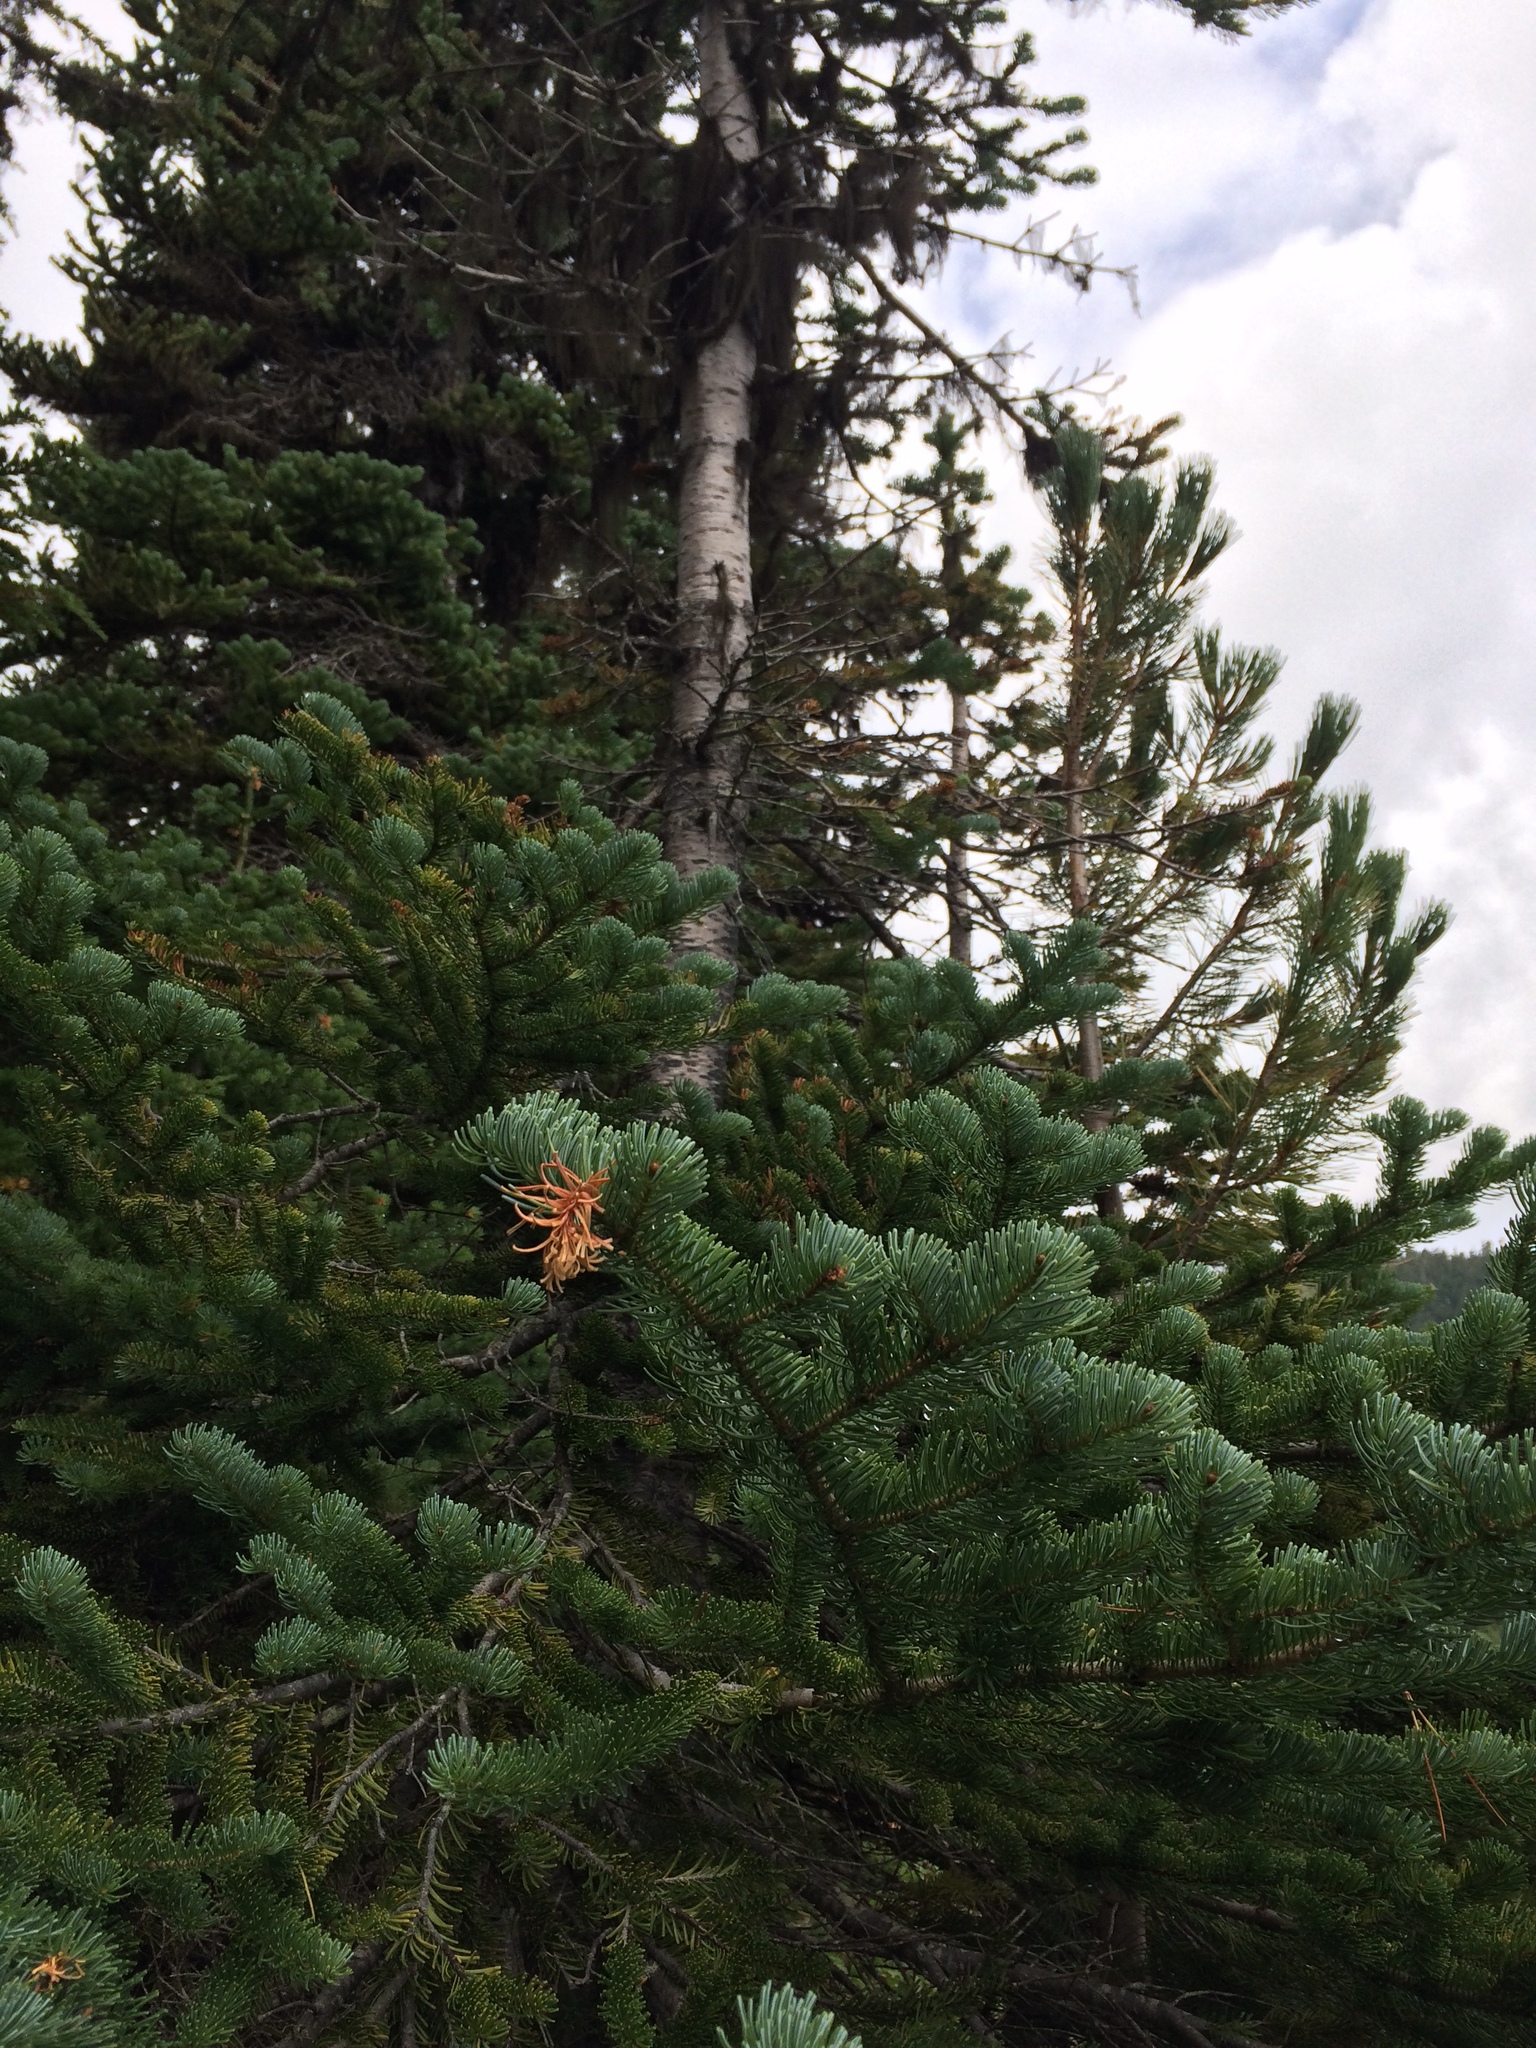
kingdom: Plantae
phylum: Tracheophyta
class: Pinopsida
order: Pinales
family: Pinaceae
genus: Abies
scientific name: Abies lasiocarpa
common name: Subalpine fir
